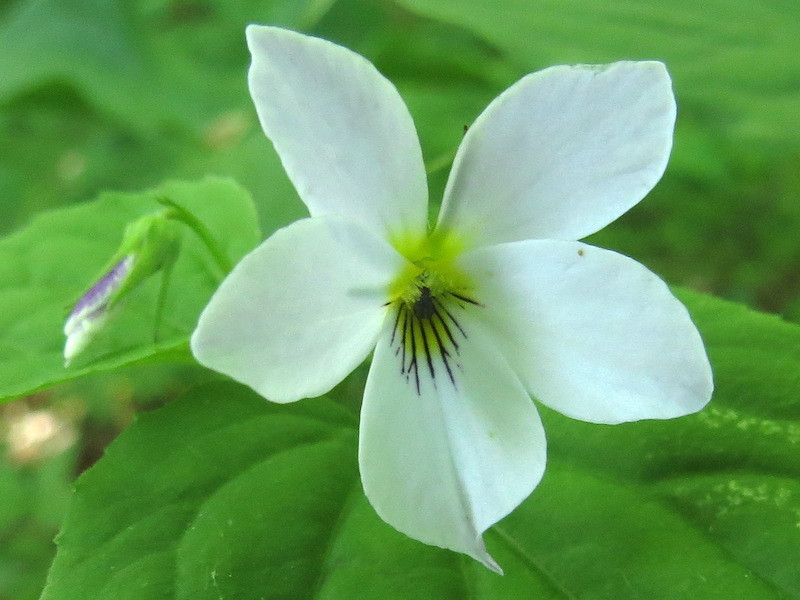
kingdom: Plantae
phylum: Tracheophyta
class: Magnoliopsida
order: Malpighiales
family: Violaceae
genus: Viola
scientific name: Viola canadensis
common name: Canada violet
